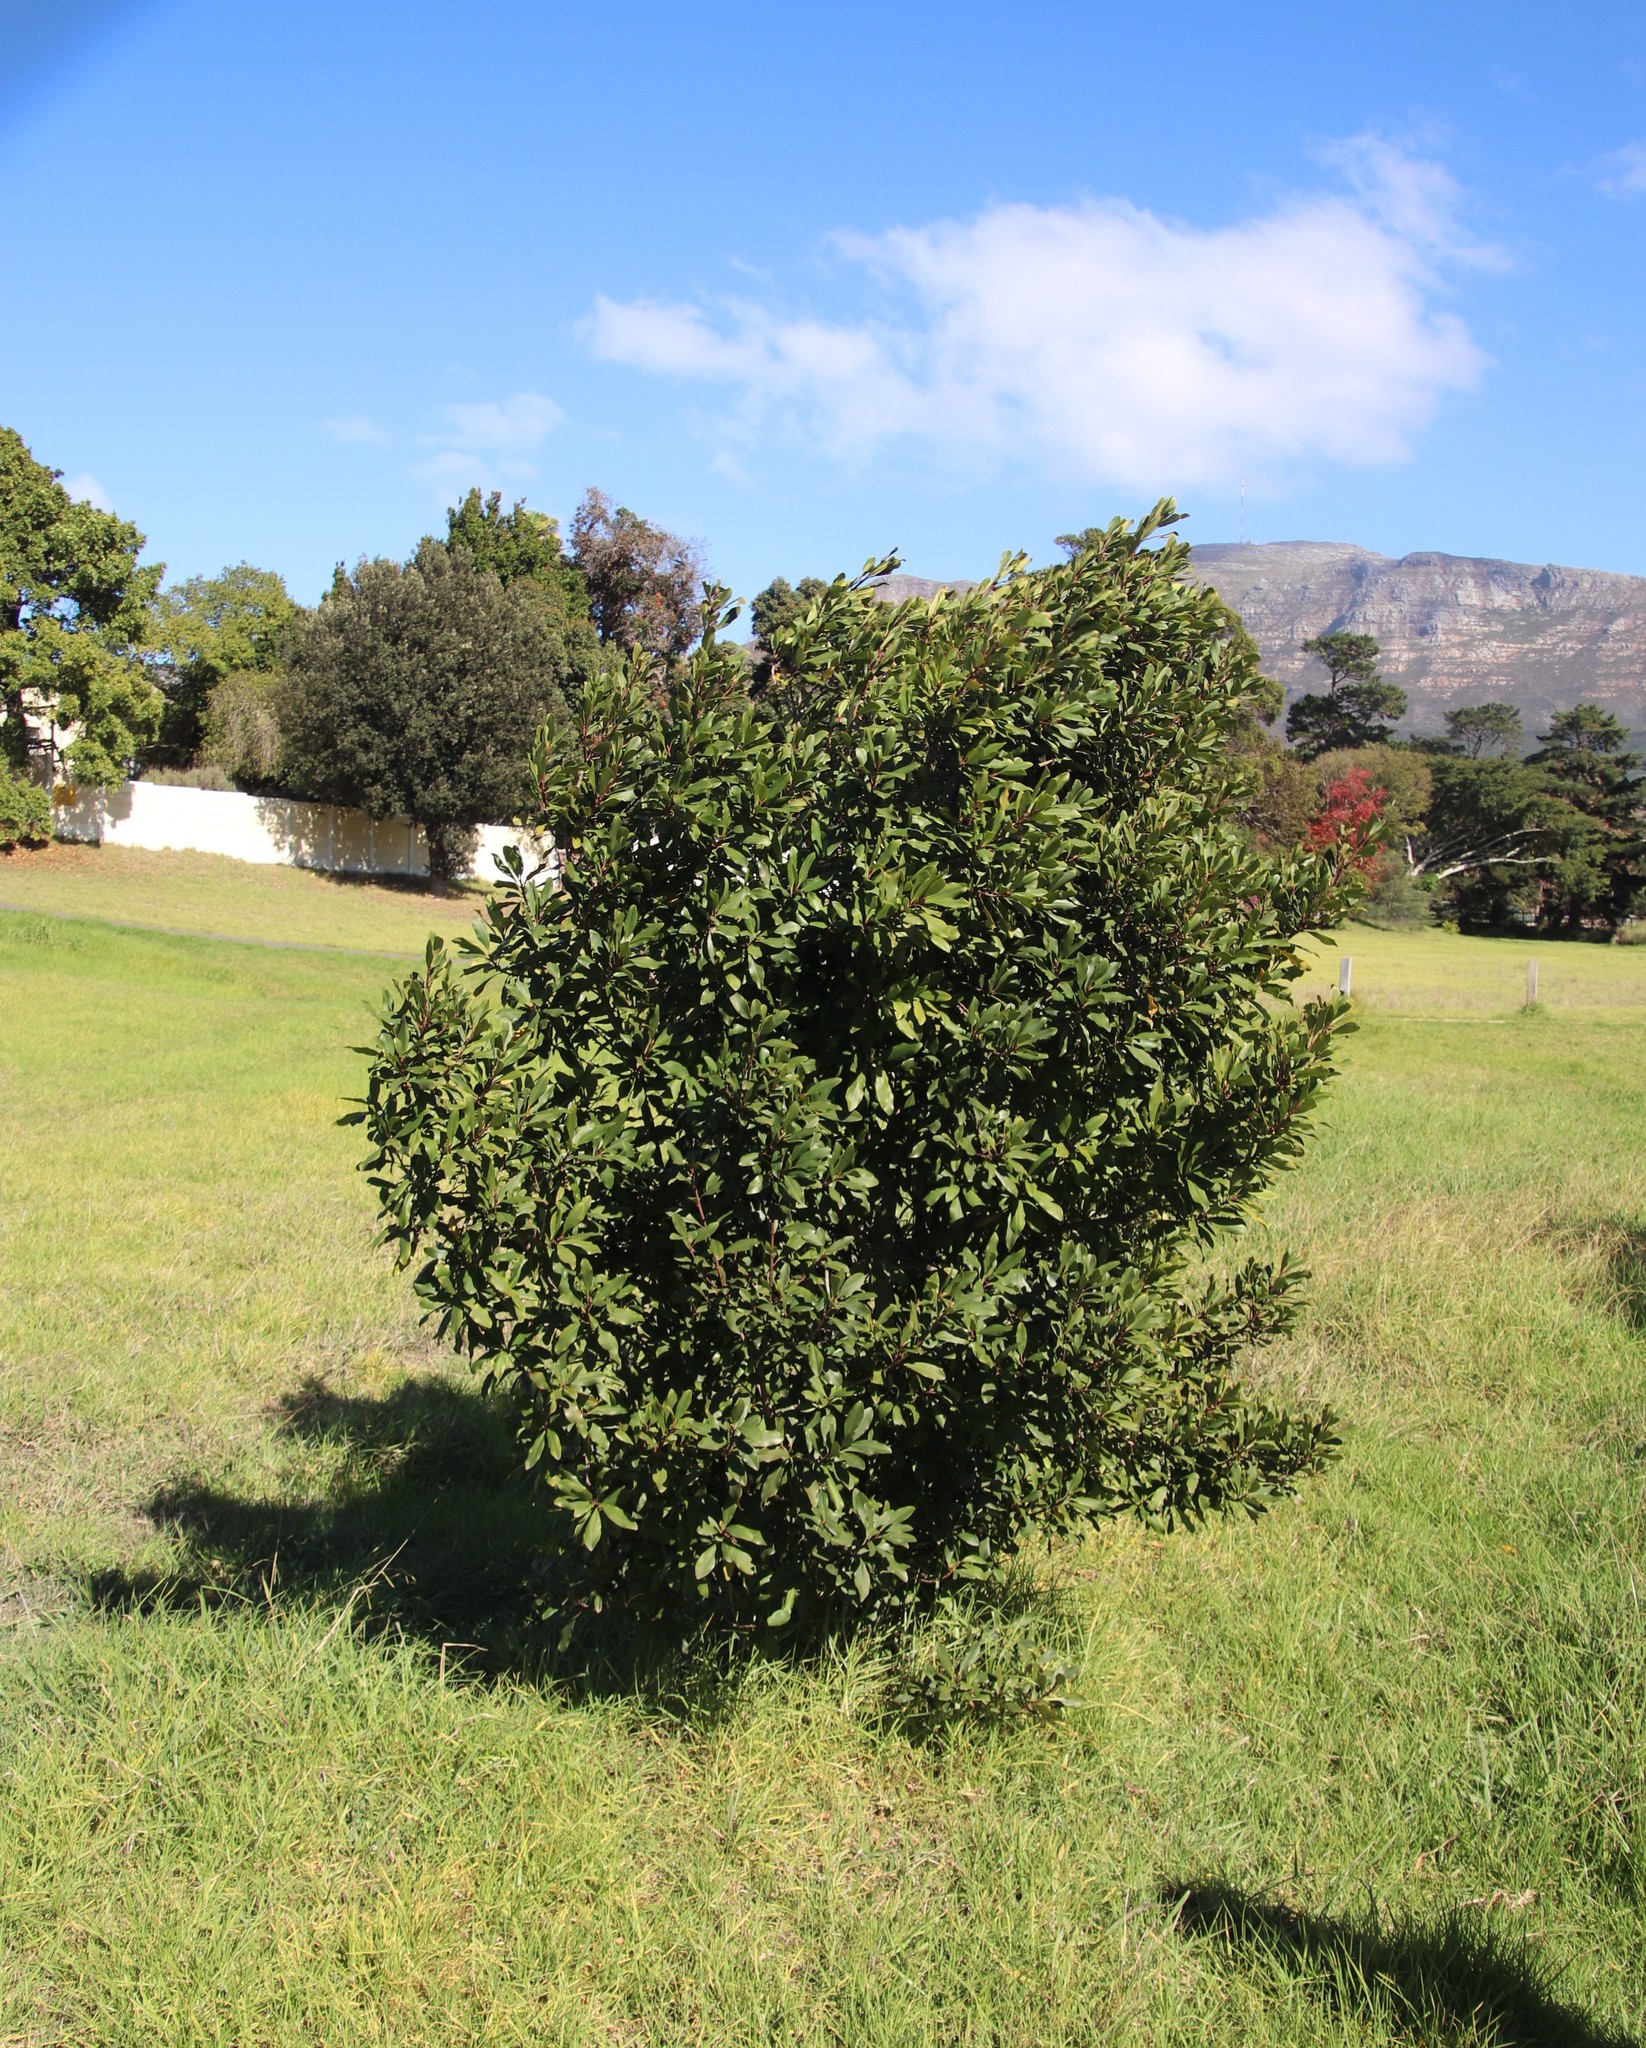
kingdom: Plantae
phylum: Tracheophyta
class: Magnoliopsida
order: Ericales
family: Primulaceae
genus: Myrsine
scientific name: Myrsine melanophloeos
